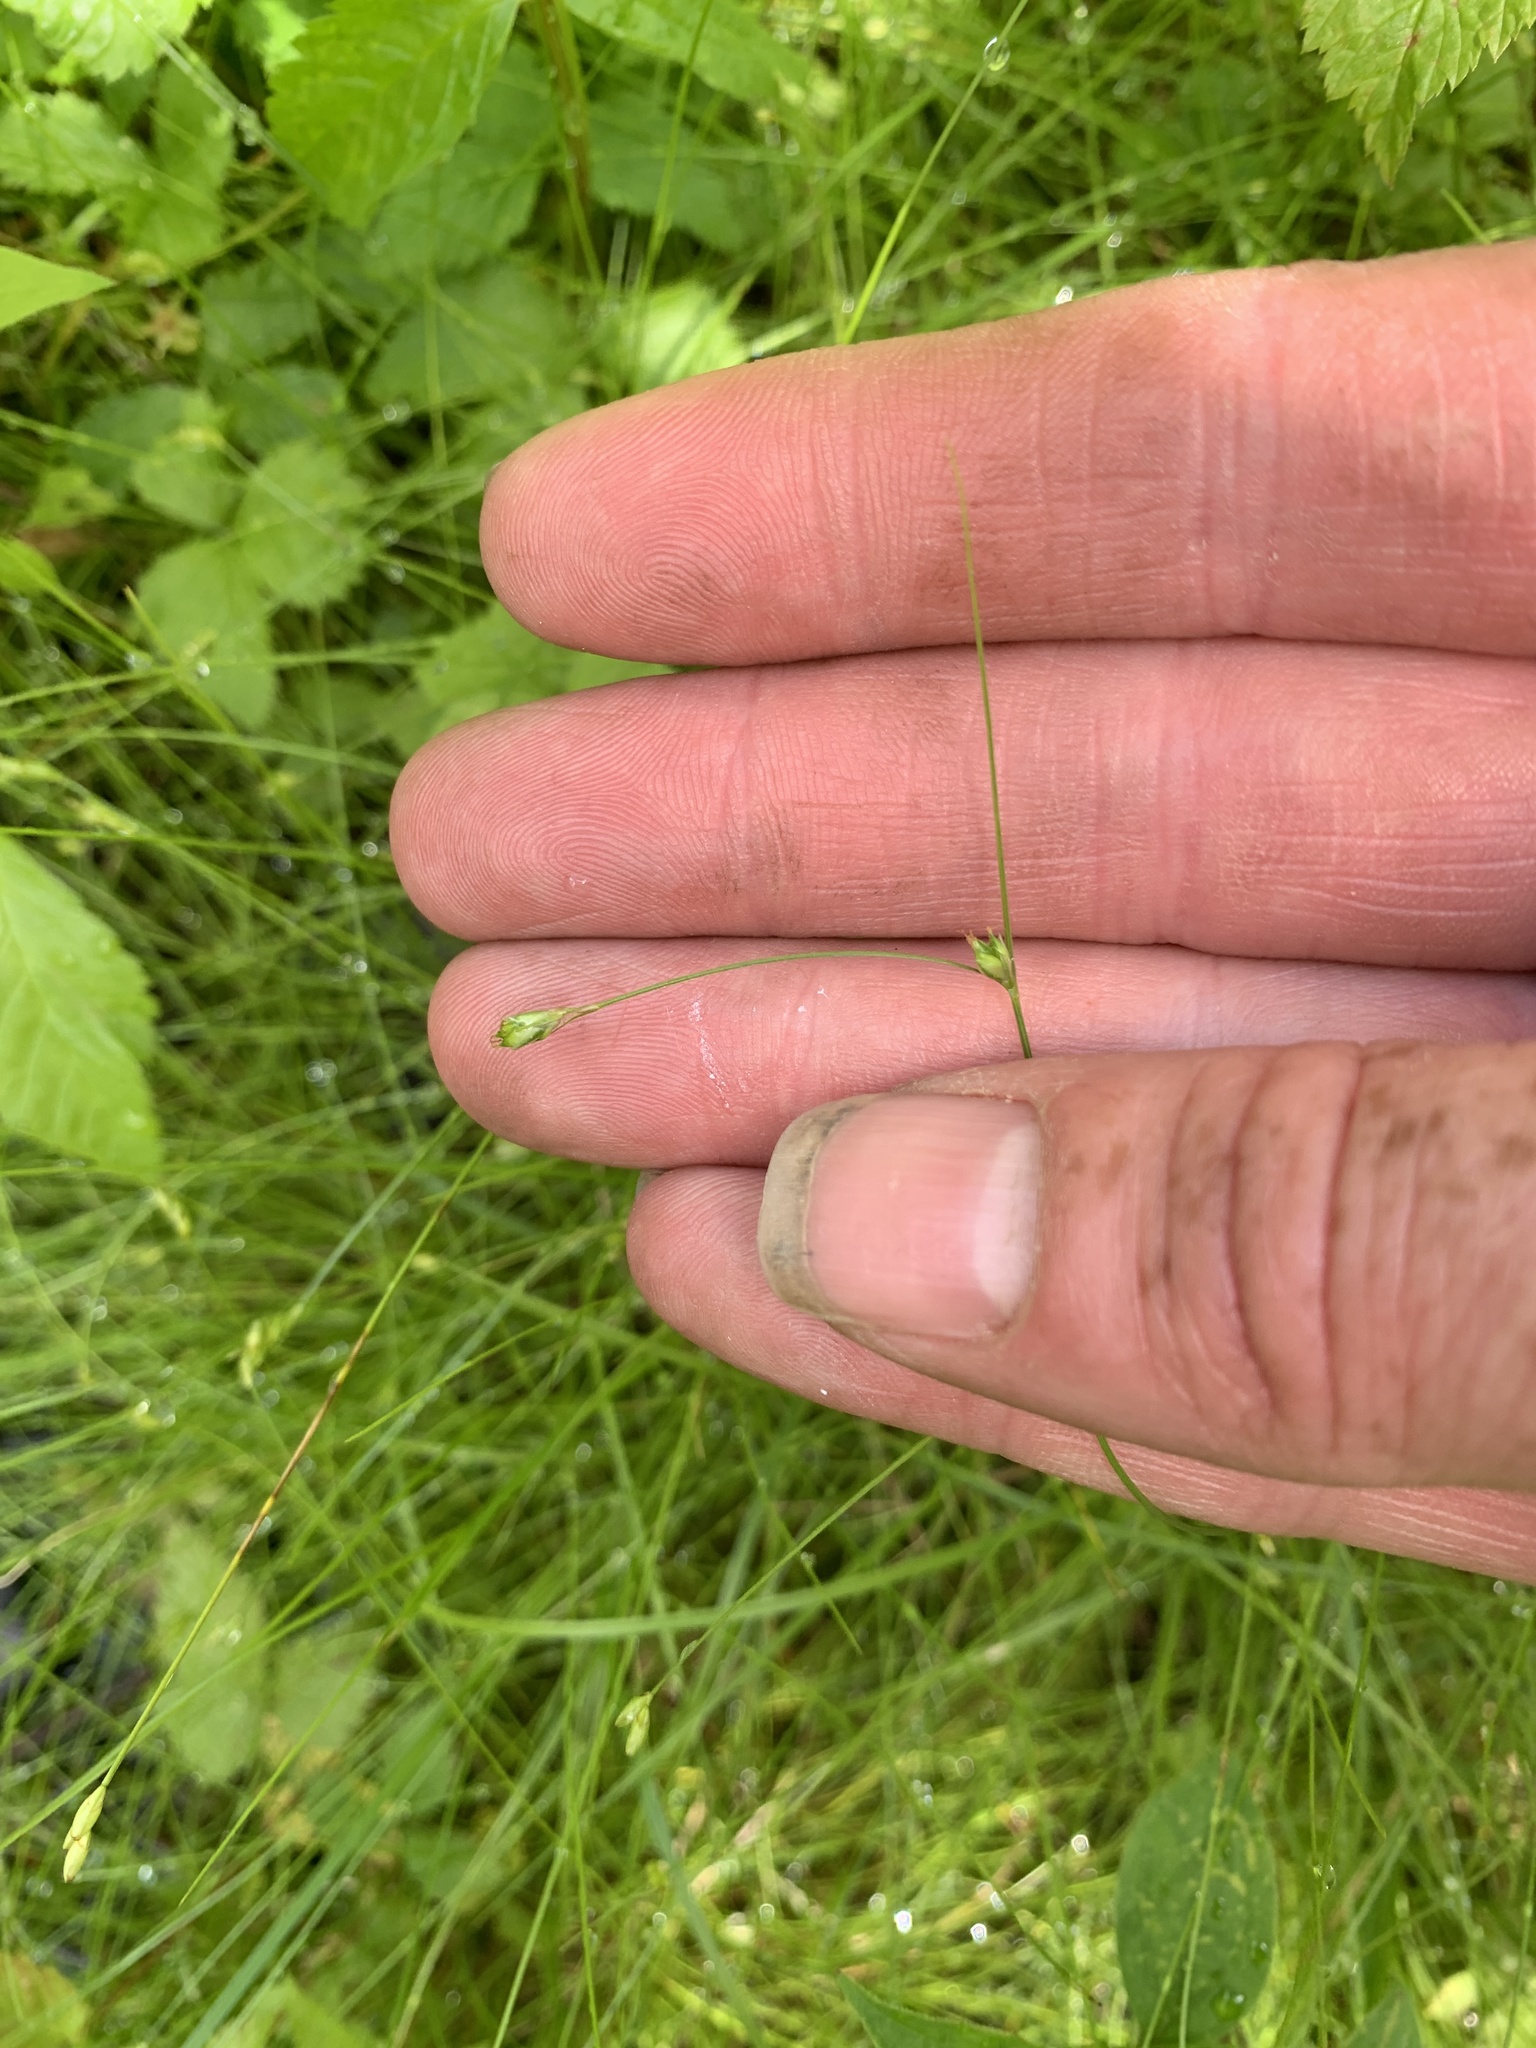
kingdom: Plantae
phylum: Tracheophyta
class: Liliopsida
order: Poales
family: Cyperaceae
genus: Carex
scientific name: Carex trisperma
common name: Three-seeded sedge
